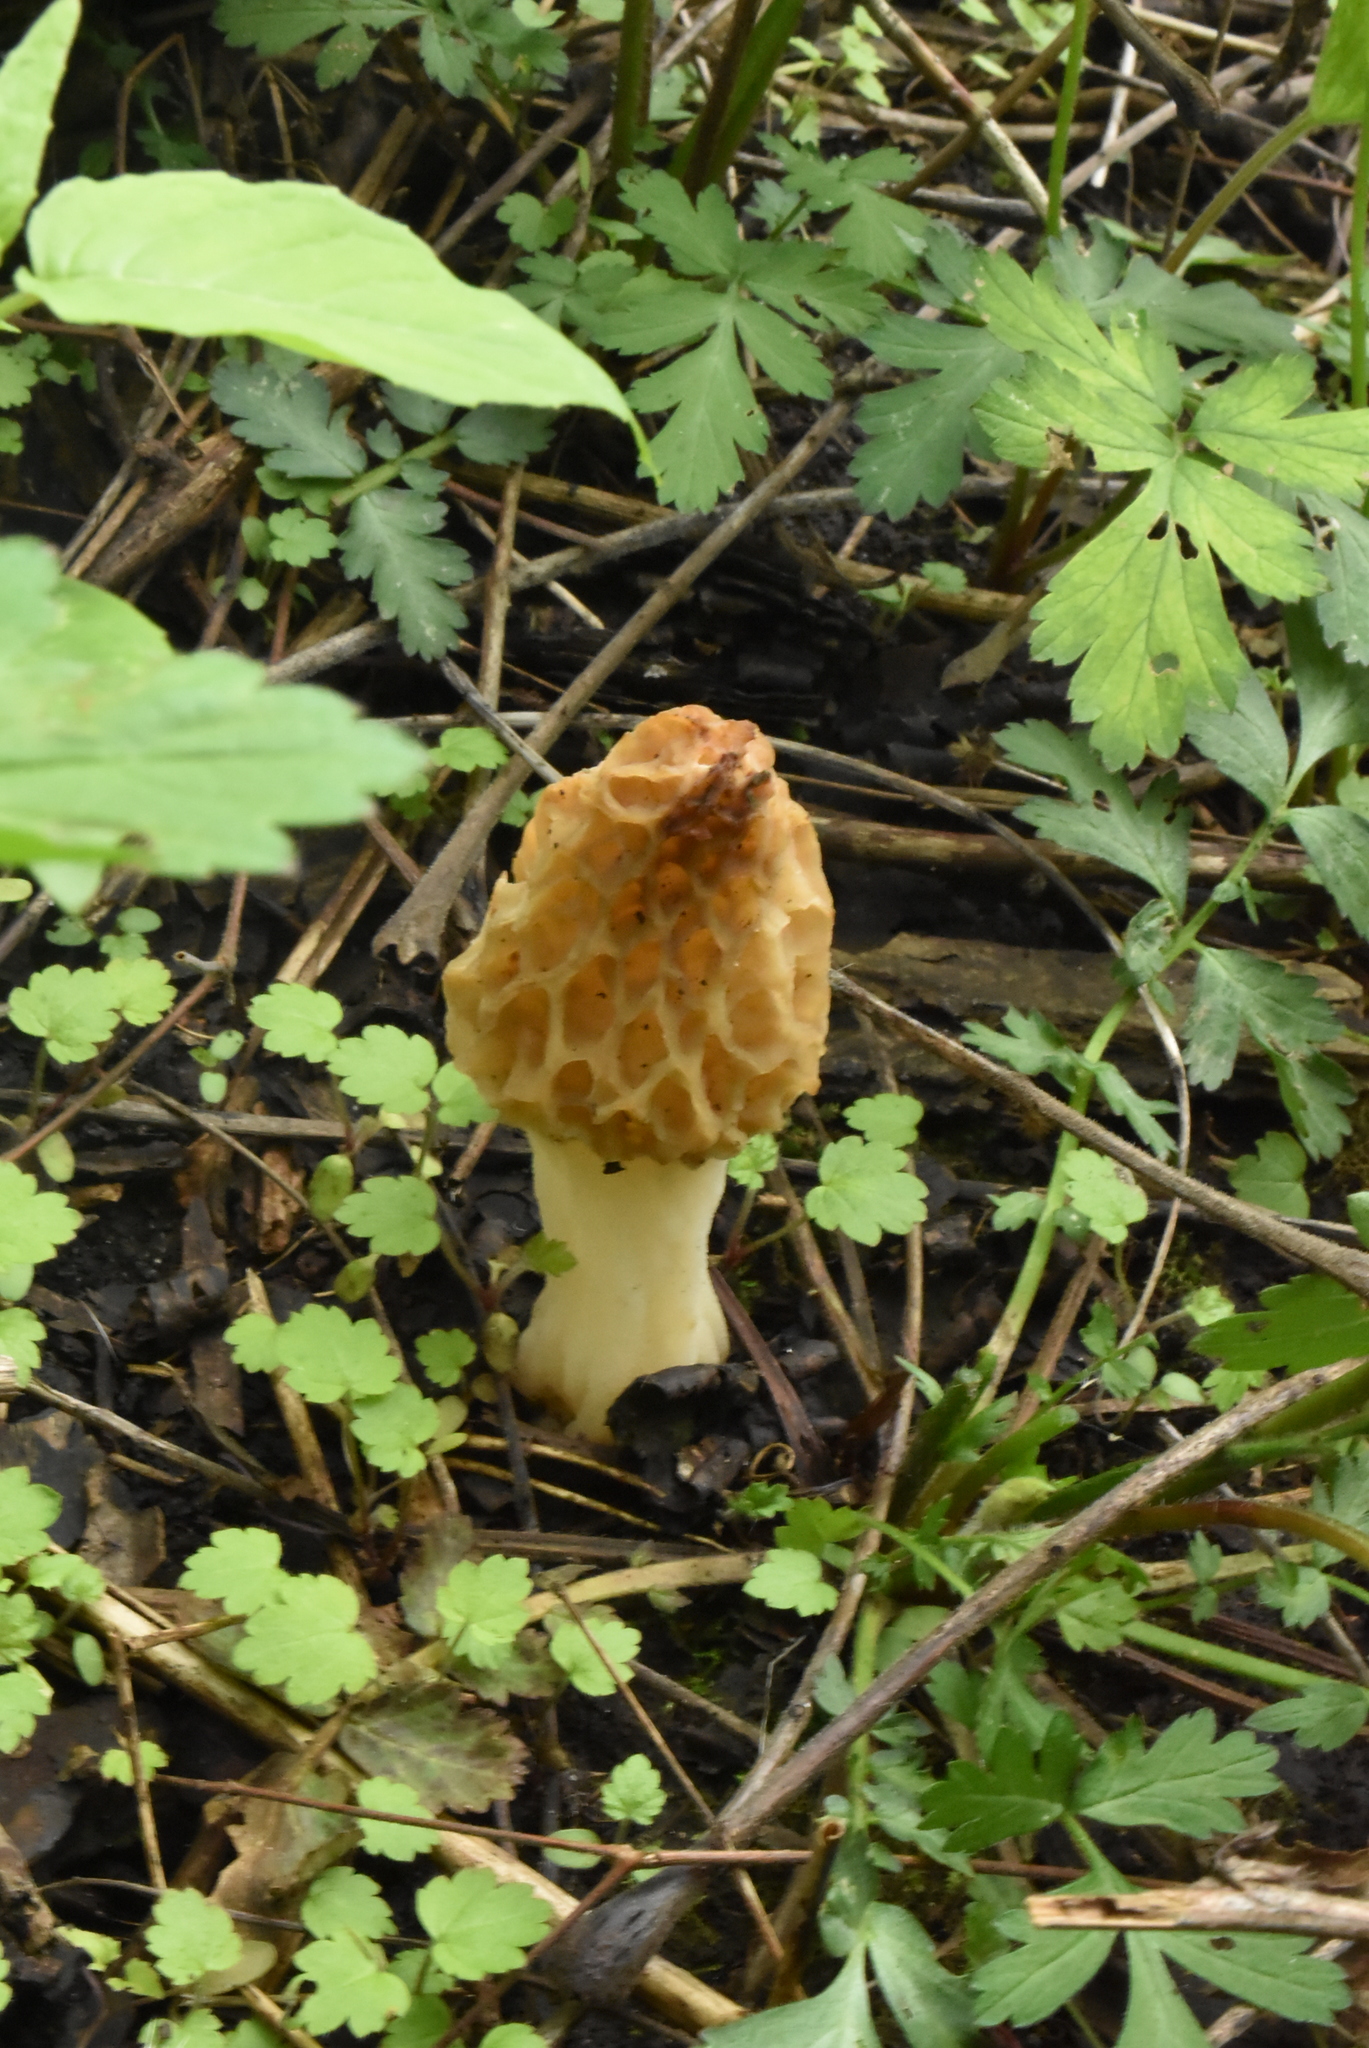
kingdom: Fungi
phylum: Ascomycota
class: Pezizomycetes
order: Pezizales
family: Morchellaceae
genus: Morchella
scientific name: Morchella americana
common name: White morel
